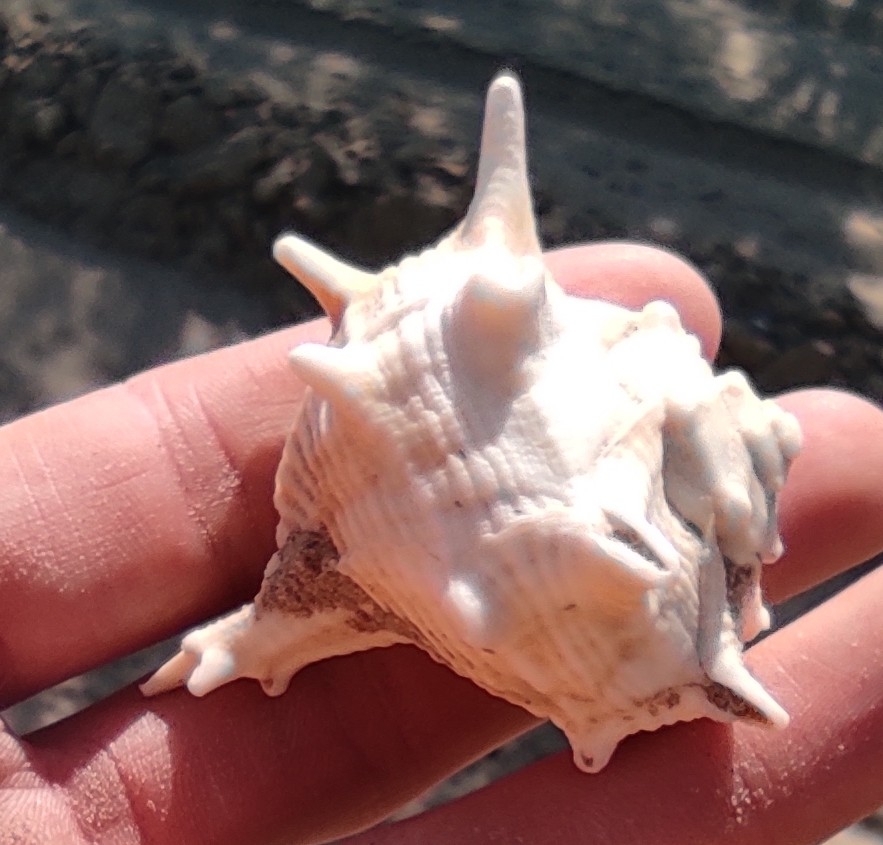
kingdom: Animalia
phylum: Mollusca
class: Gastropoda
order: Neogastropoda
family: Muricidae
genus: Bolinus
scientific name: Bolinus brandaris
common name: Dye murex
